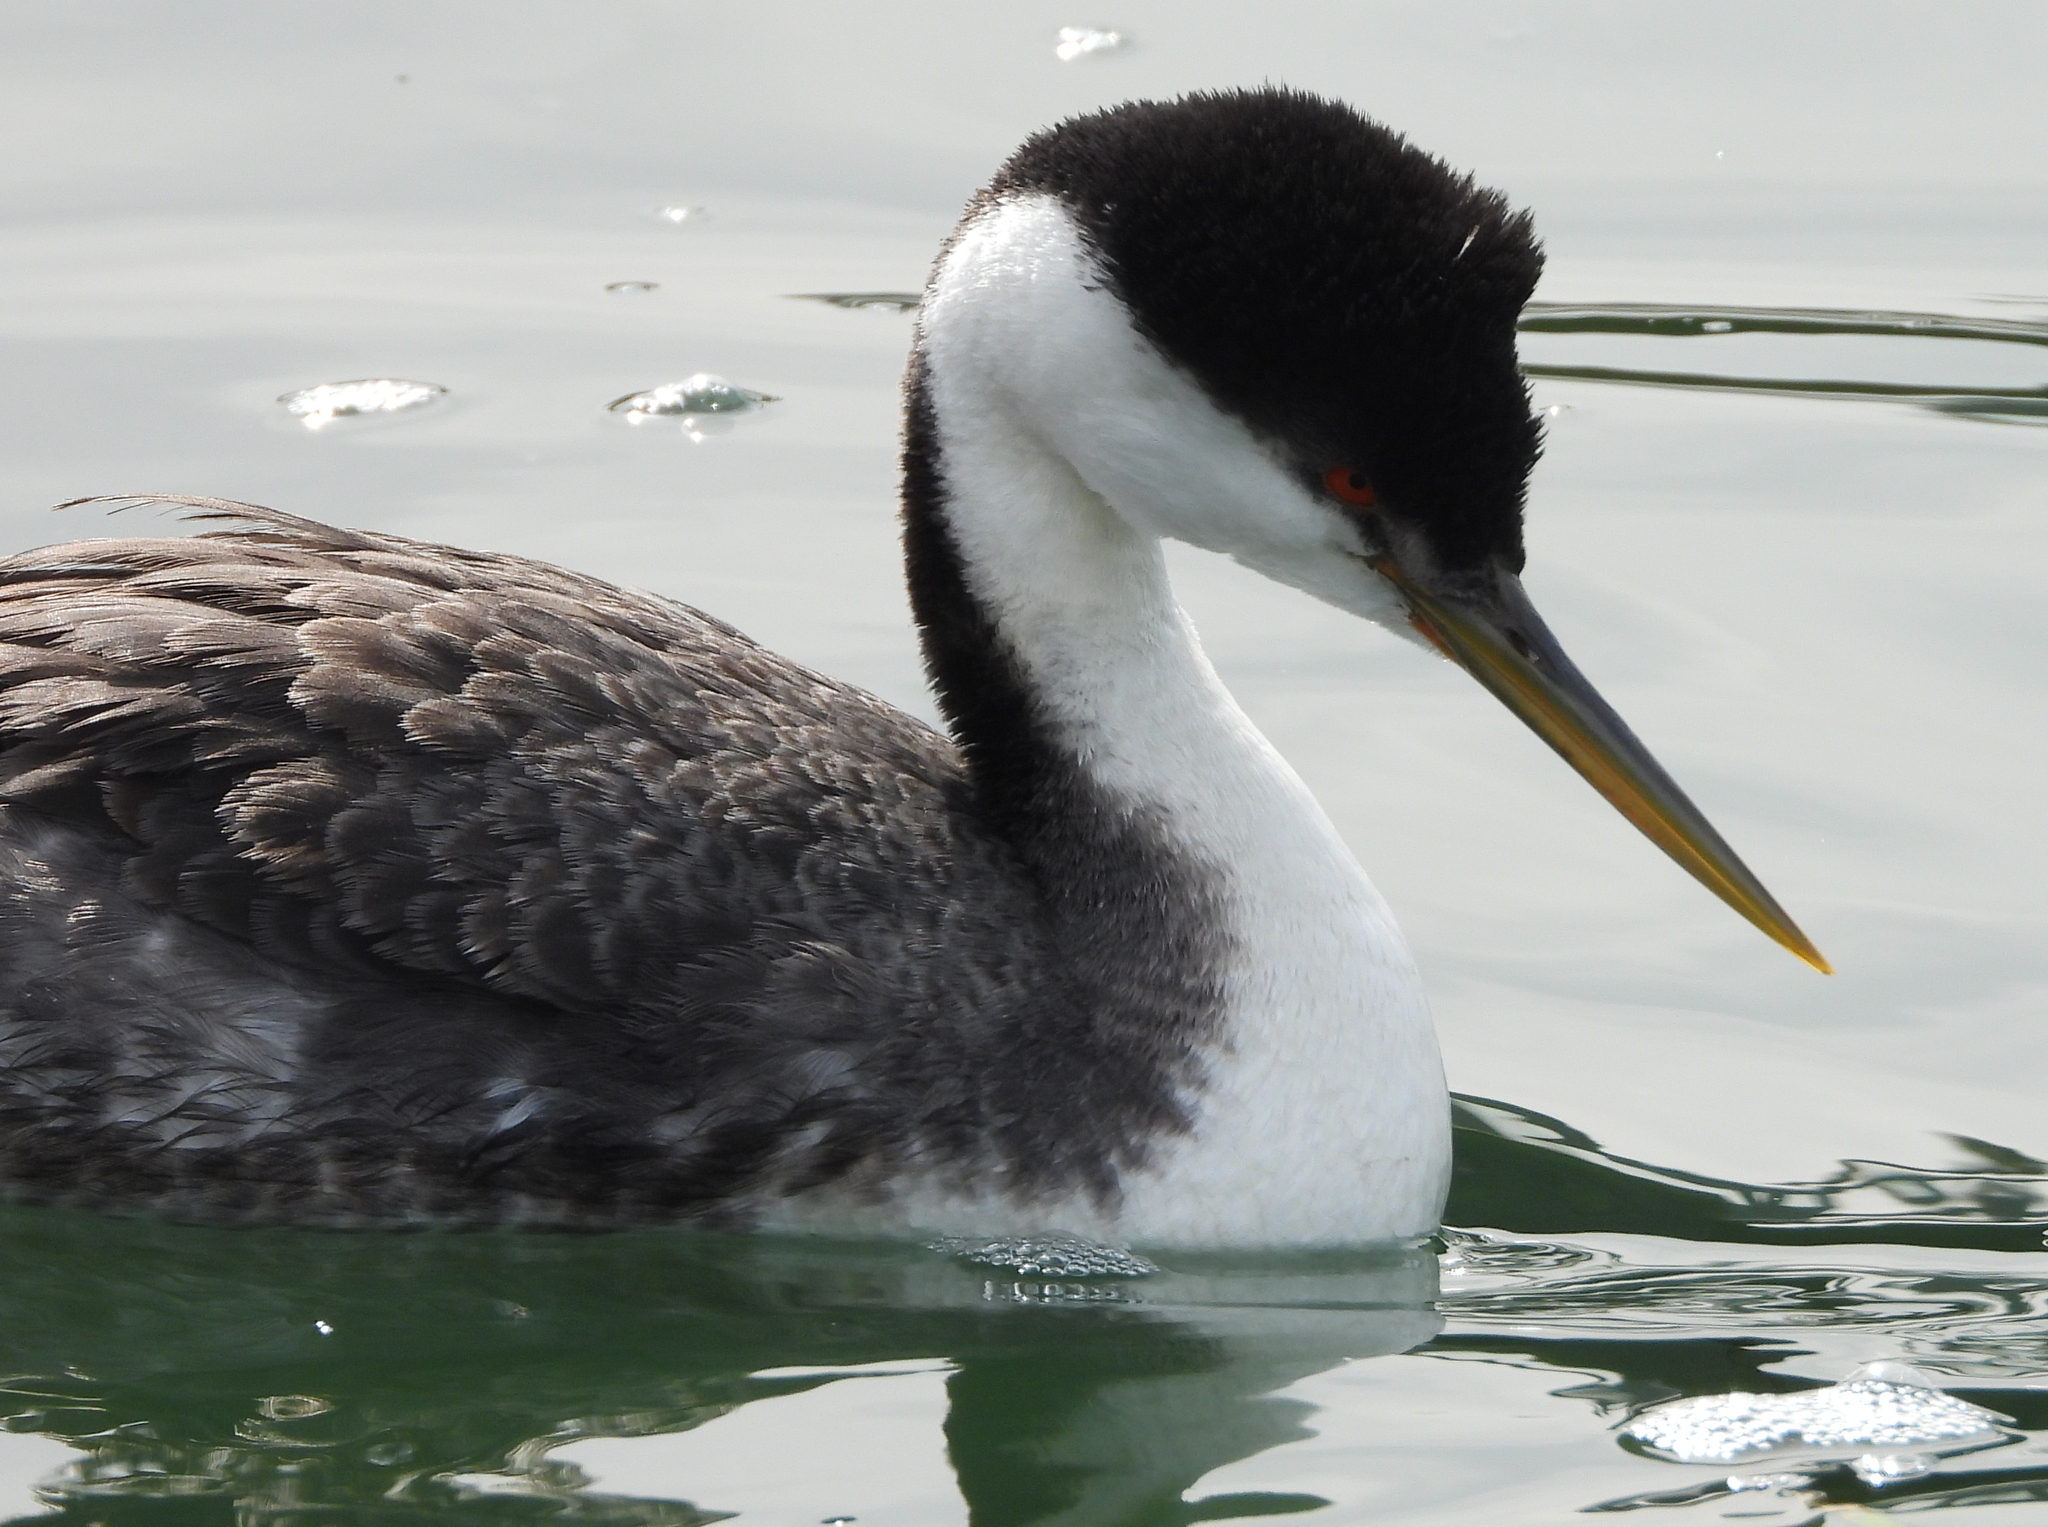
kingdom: Animalia
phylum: Chordata
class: Aves
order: Podicipediformes
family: Podicipedidae
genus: Aechmophorus
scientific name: Aechmophorus occidentalis
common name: Western grebe
